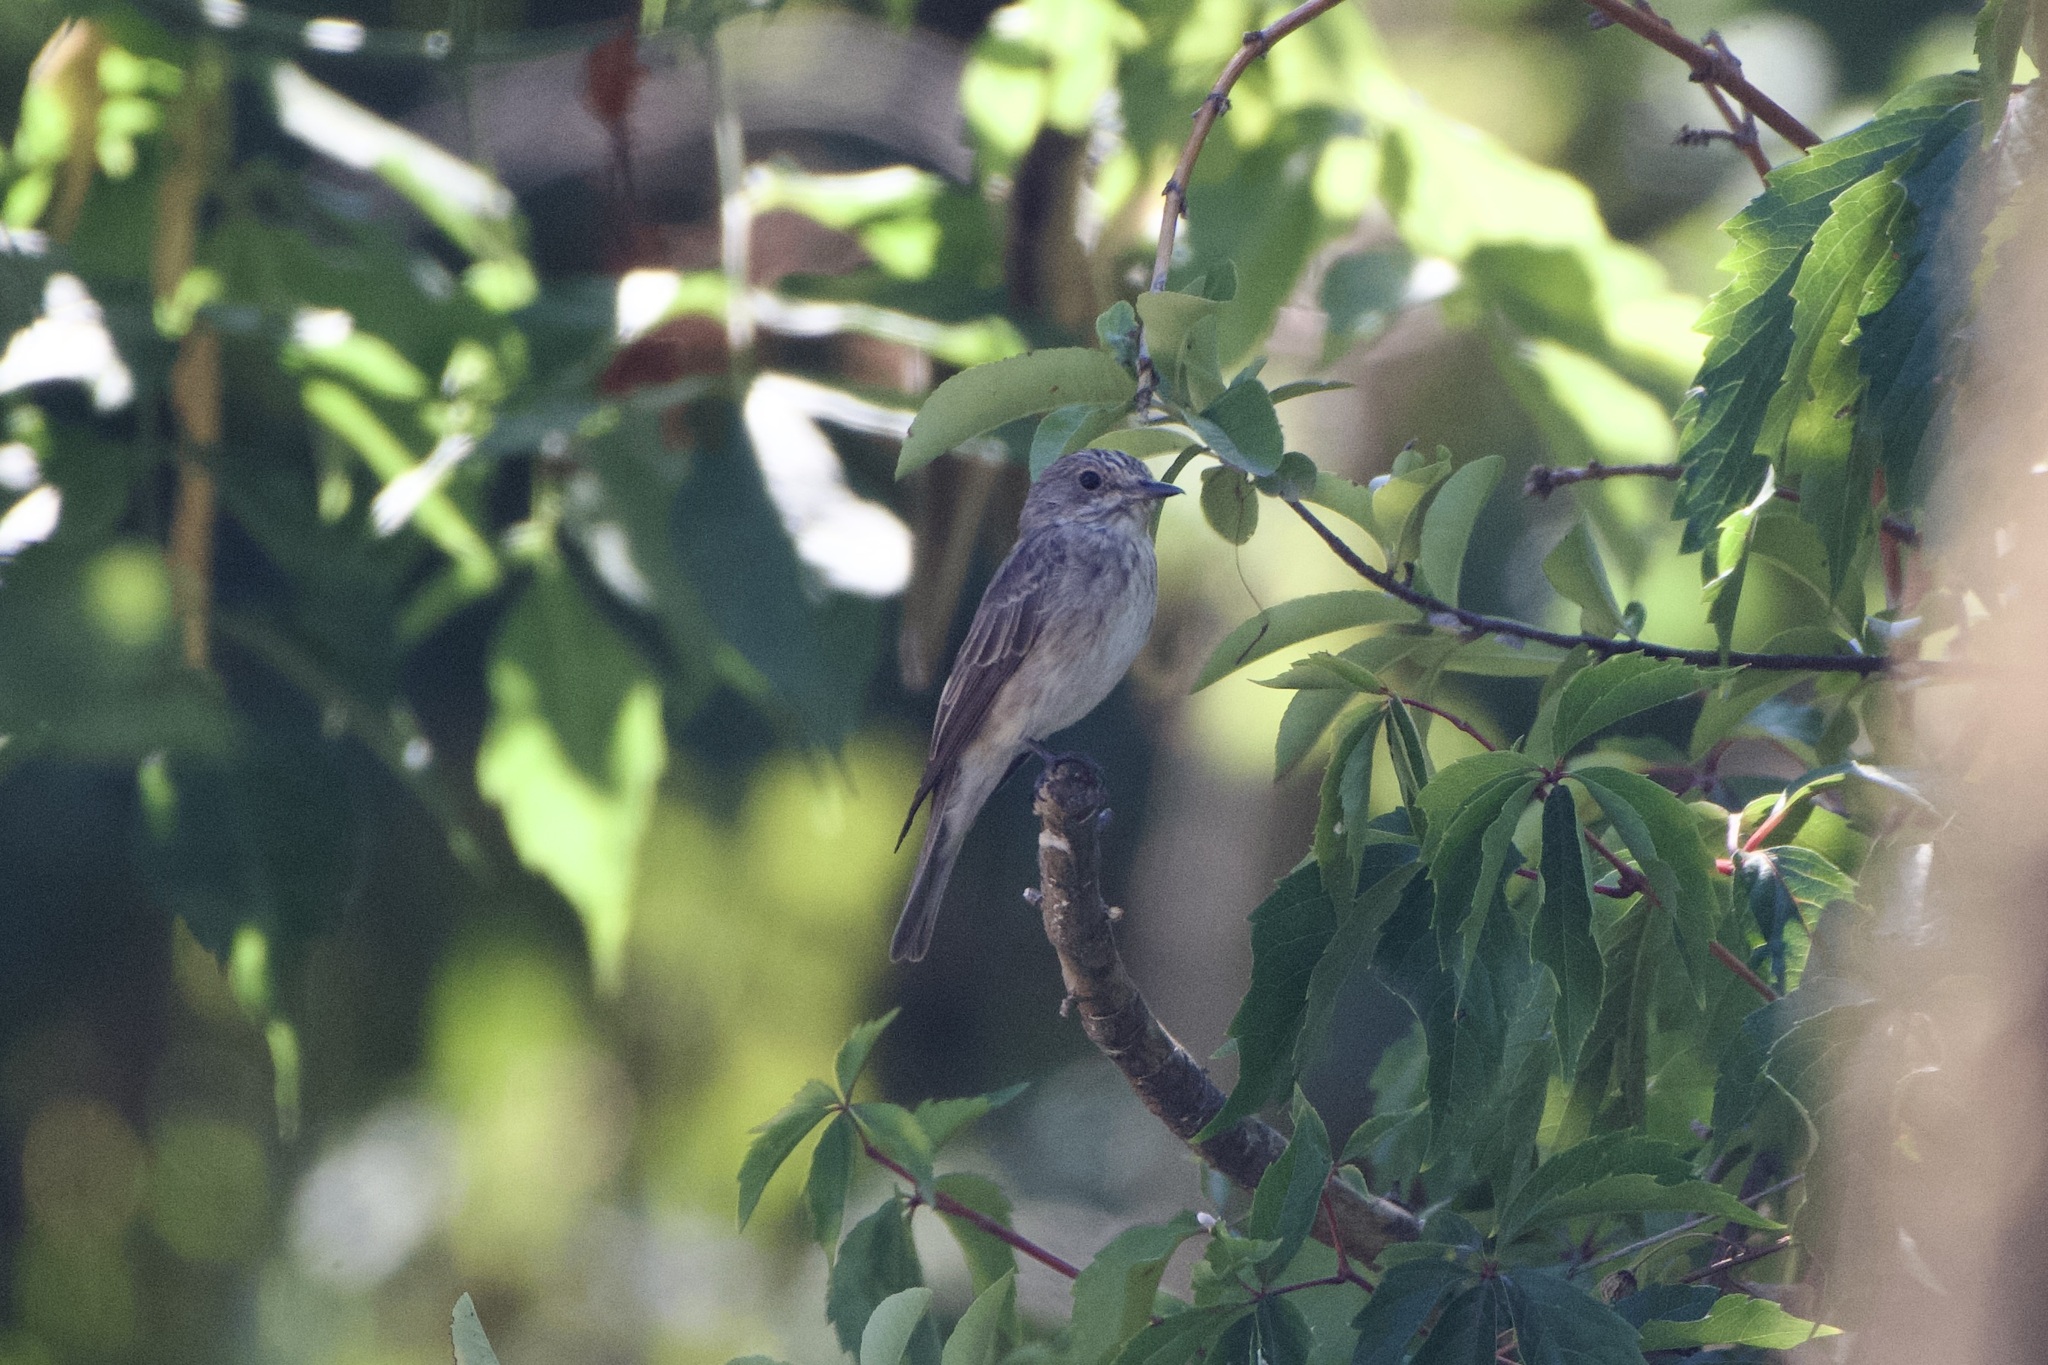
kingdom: Animalia
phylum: Chordata
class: Aves
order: Passeriformes
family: Muscicapidae
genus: Muscicapa
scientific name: Muscicapa striata
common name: Spotted flycatcher
